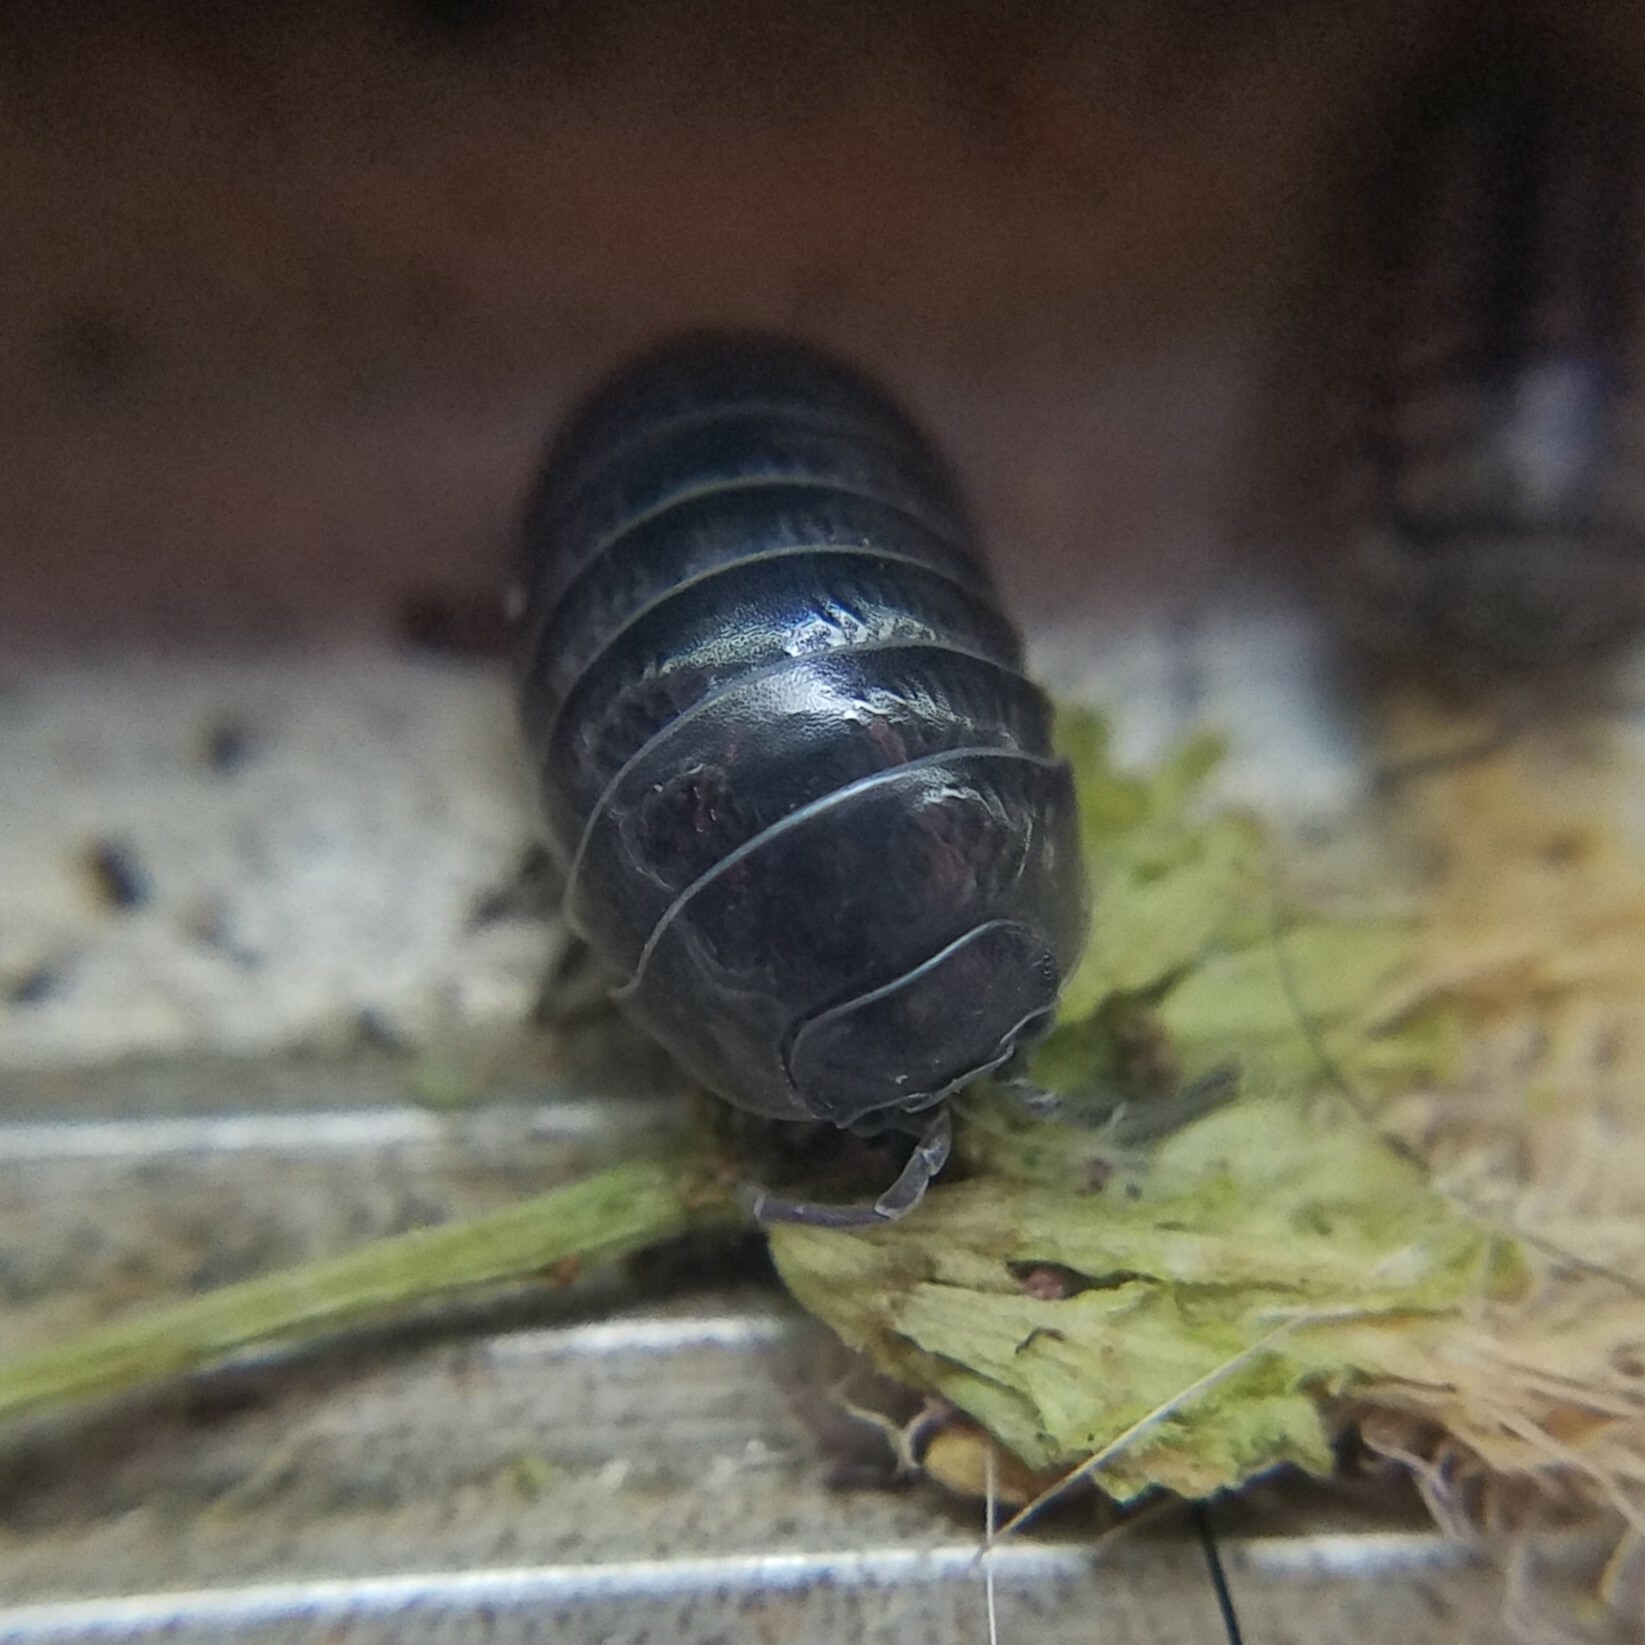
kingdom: Animalia
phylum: Arthropoda
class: Malacostraca
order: Isopoda
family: Armadillidiidae
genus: Armadillidium
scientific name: Armadillidium vulgare
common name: Common pill woodlouse
